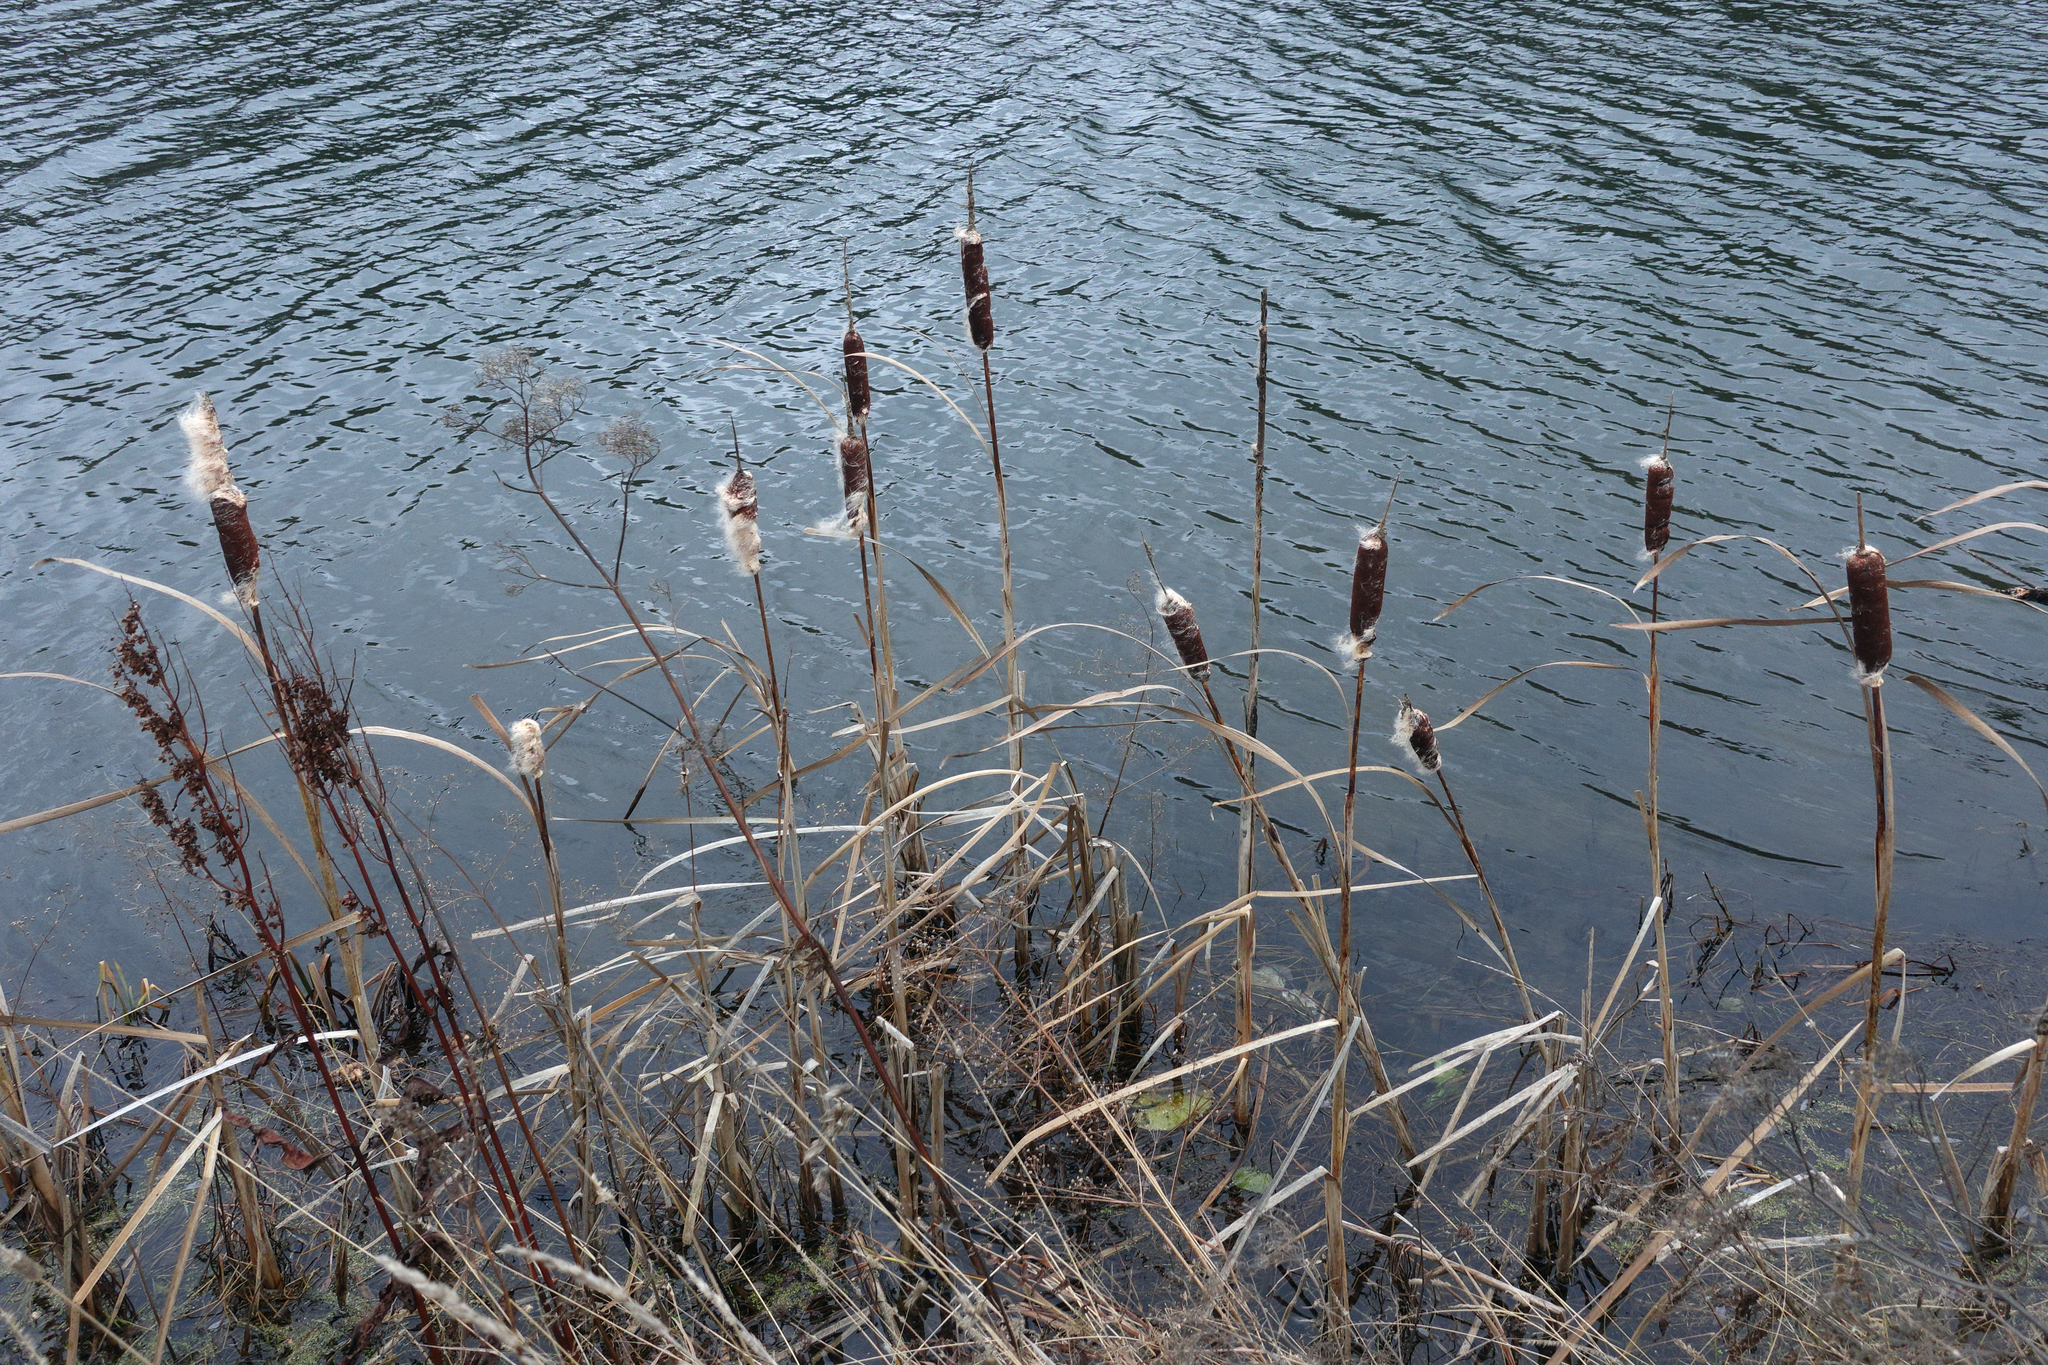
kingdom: Plantae
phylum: Tracheophyta
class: Liliopsida
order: Poales
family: Typhaceae
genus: Typha
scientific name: Typha latifolia
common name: Broadleaf cattail
